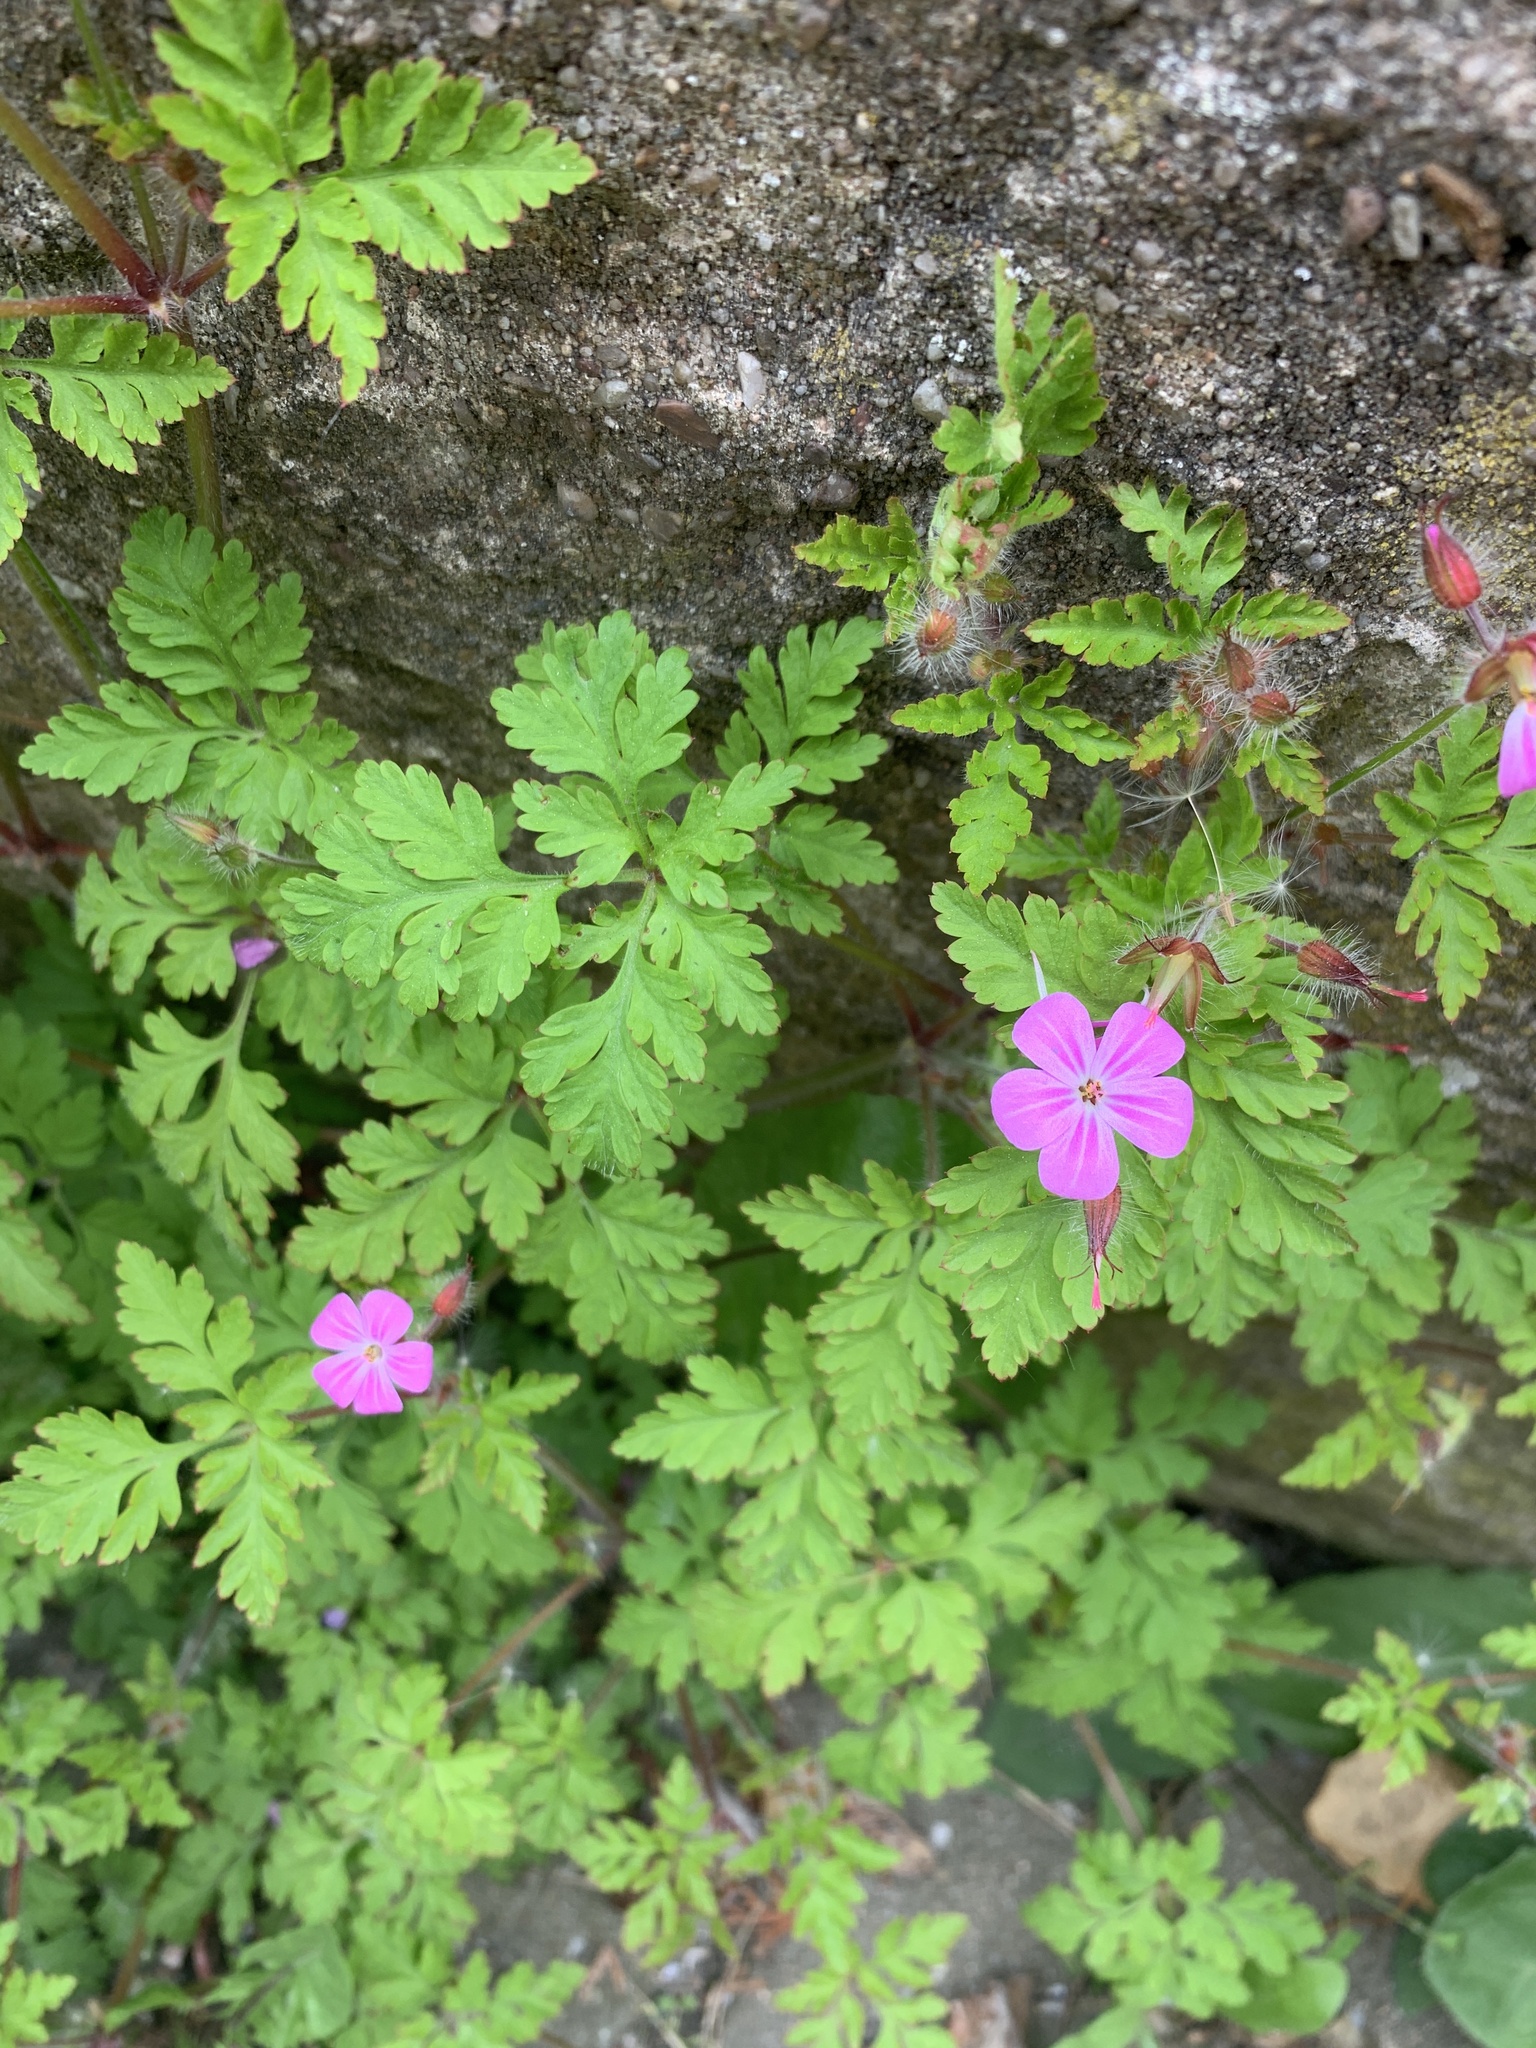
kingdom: Plantae
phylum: Tracheophyta
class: Magnoliopsida
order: Geraniales
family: Geraniaceae
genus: Geranium
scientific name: Geranium robertianum
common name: Herb-robert
